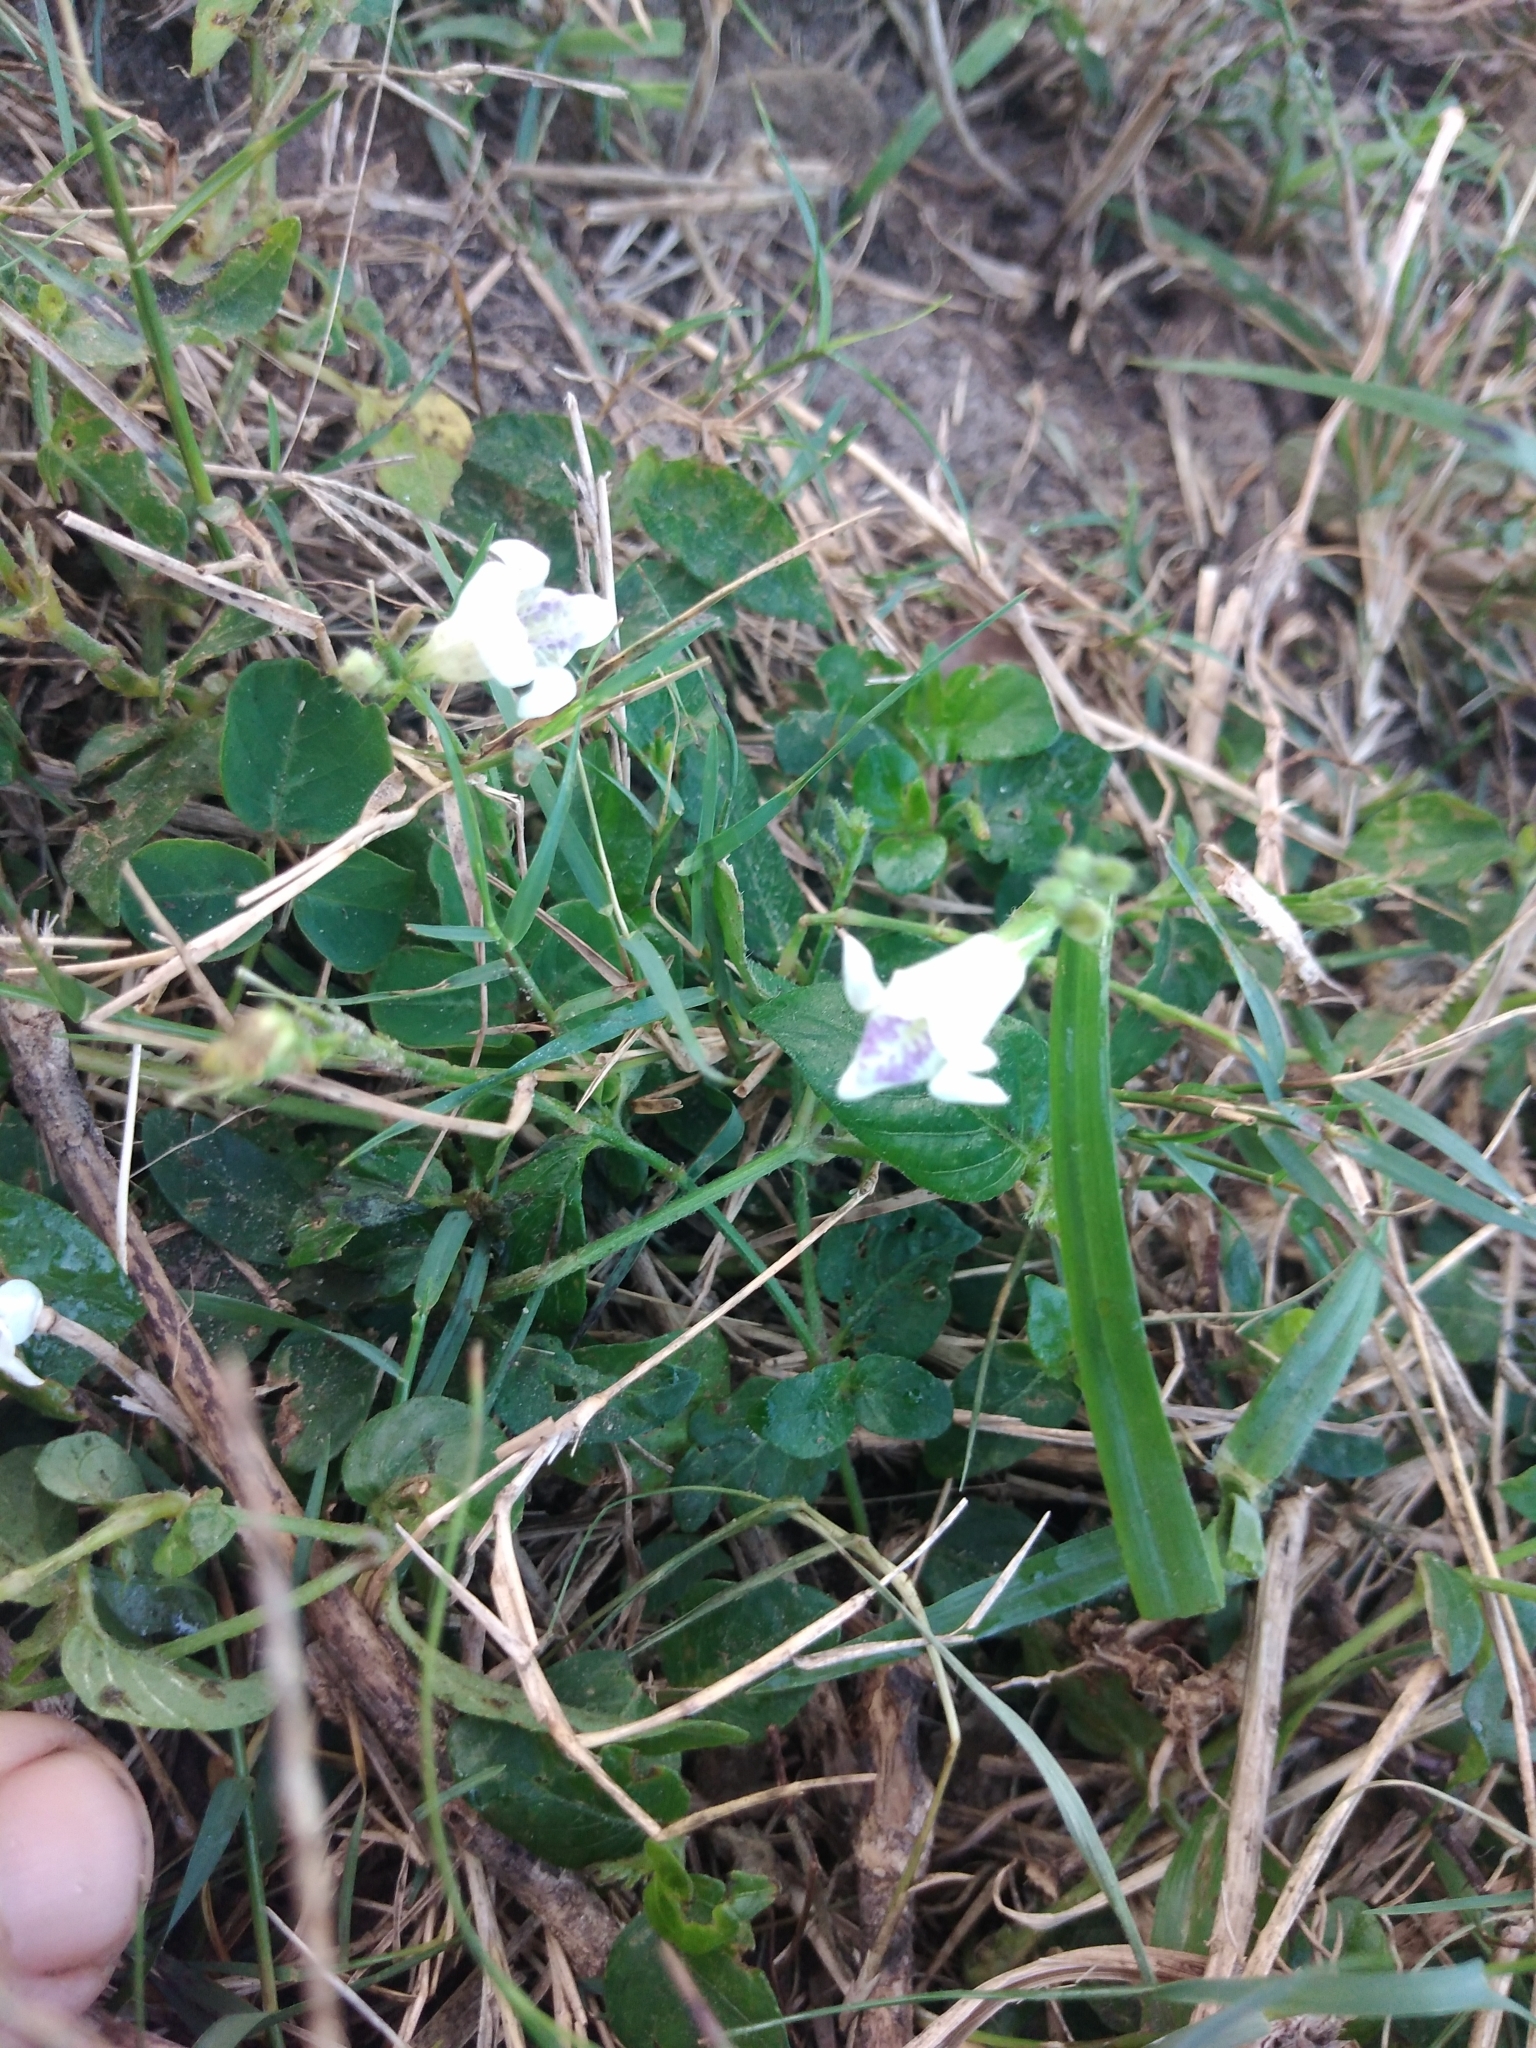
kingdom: Plantae
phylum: Tracheophyta
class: Magnoliopsida
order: Lamiales
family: Acanthaceae
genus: Asystasia
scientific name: Asystasia intrusa
